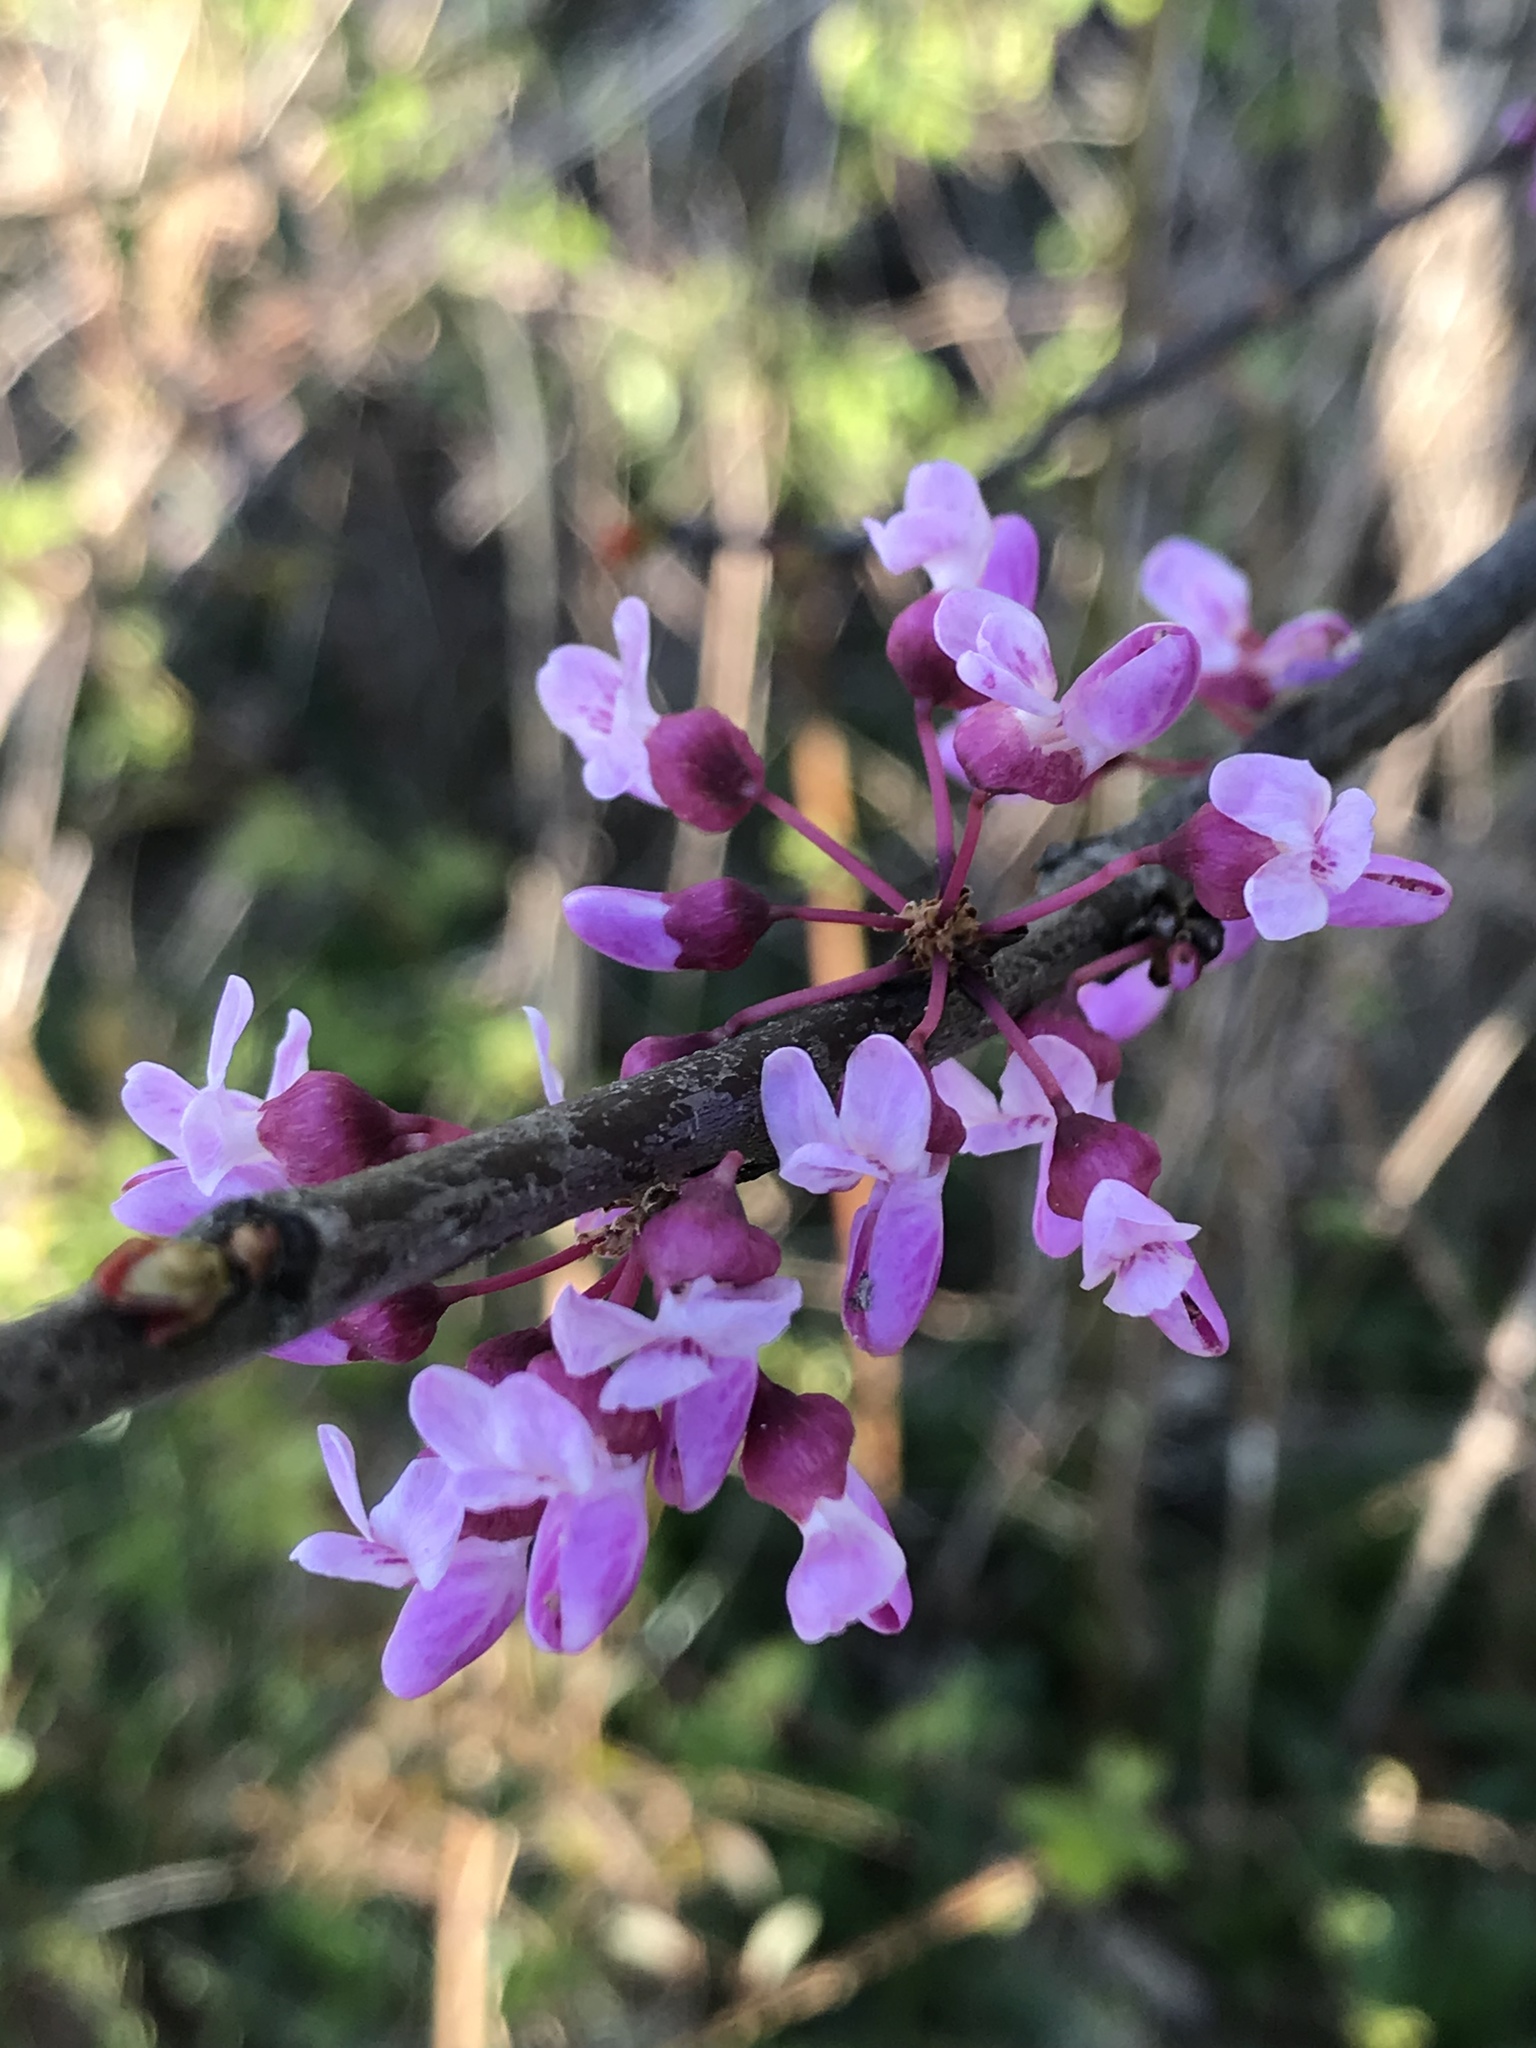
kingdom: Plantae
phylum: Tracheophyta
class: Magnoliopsida
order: Fabales
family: Fabaceae
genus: Cercis
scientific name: Cercis canadensis
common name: Eastern redbud
